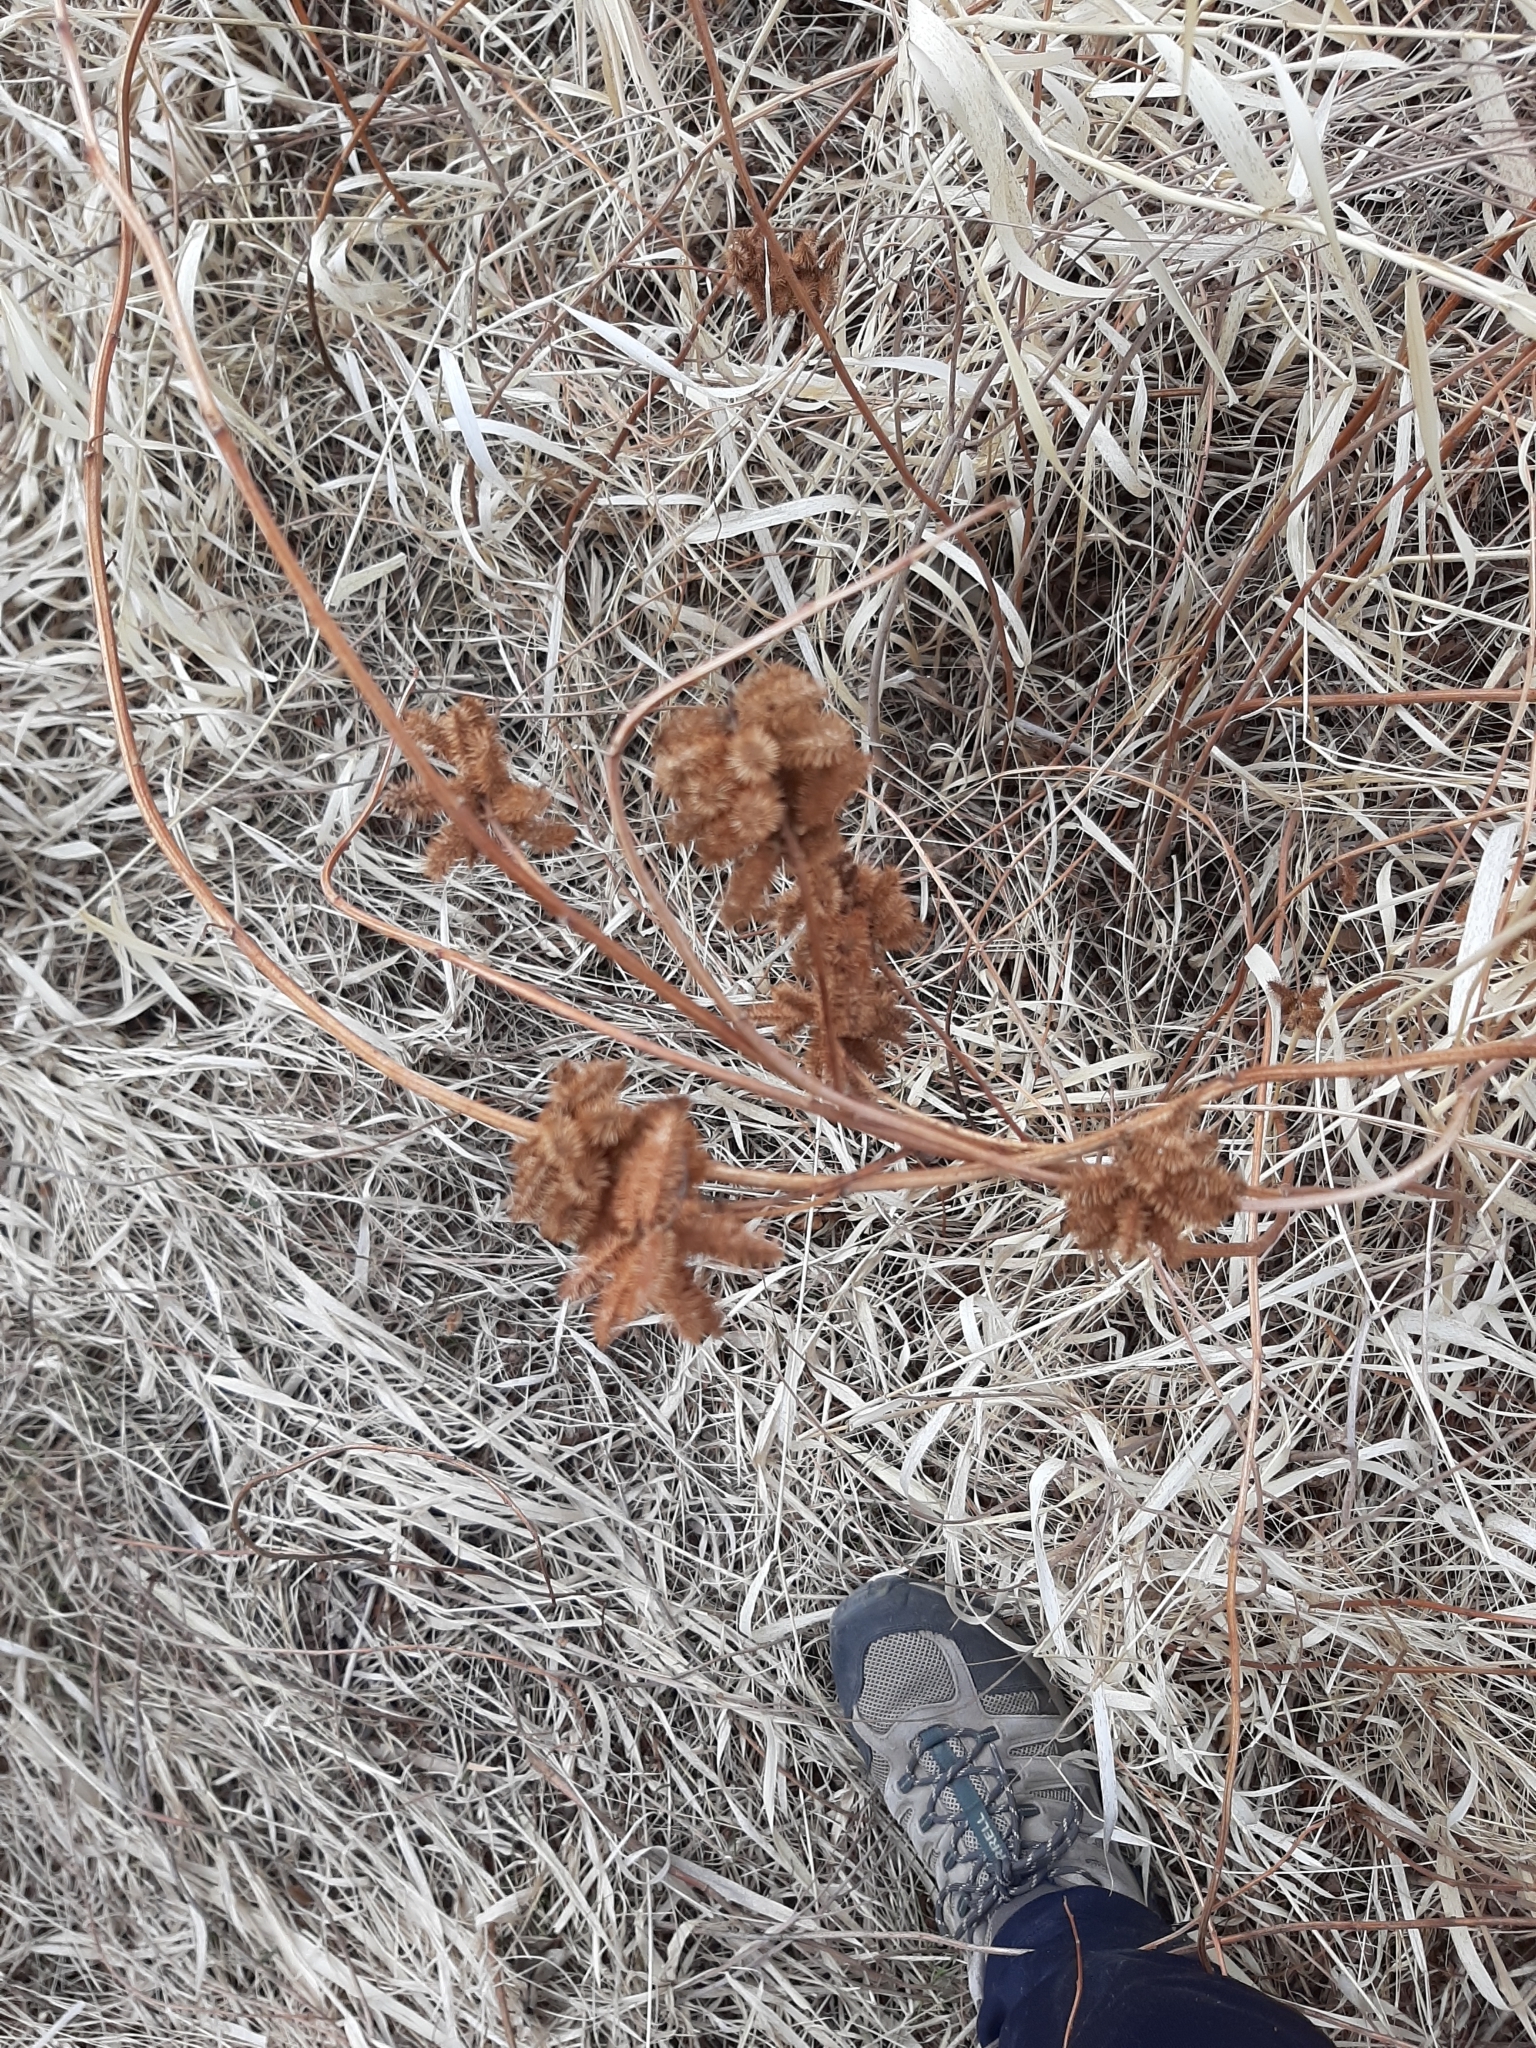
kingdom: Plantae
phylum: Tracheophyta
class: Magnoliopsida
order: Fabales
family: Fabaceae
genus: Glycyrrhiza
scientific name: Glycyrrhiza lepidota
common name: American liquorice
